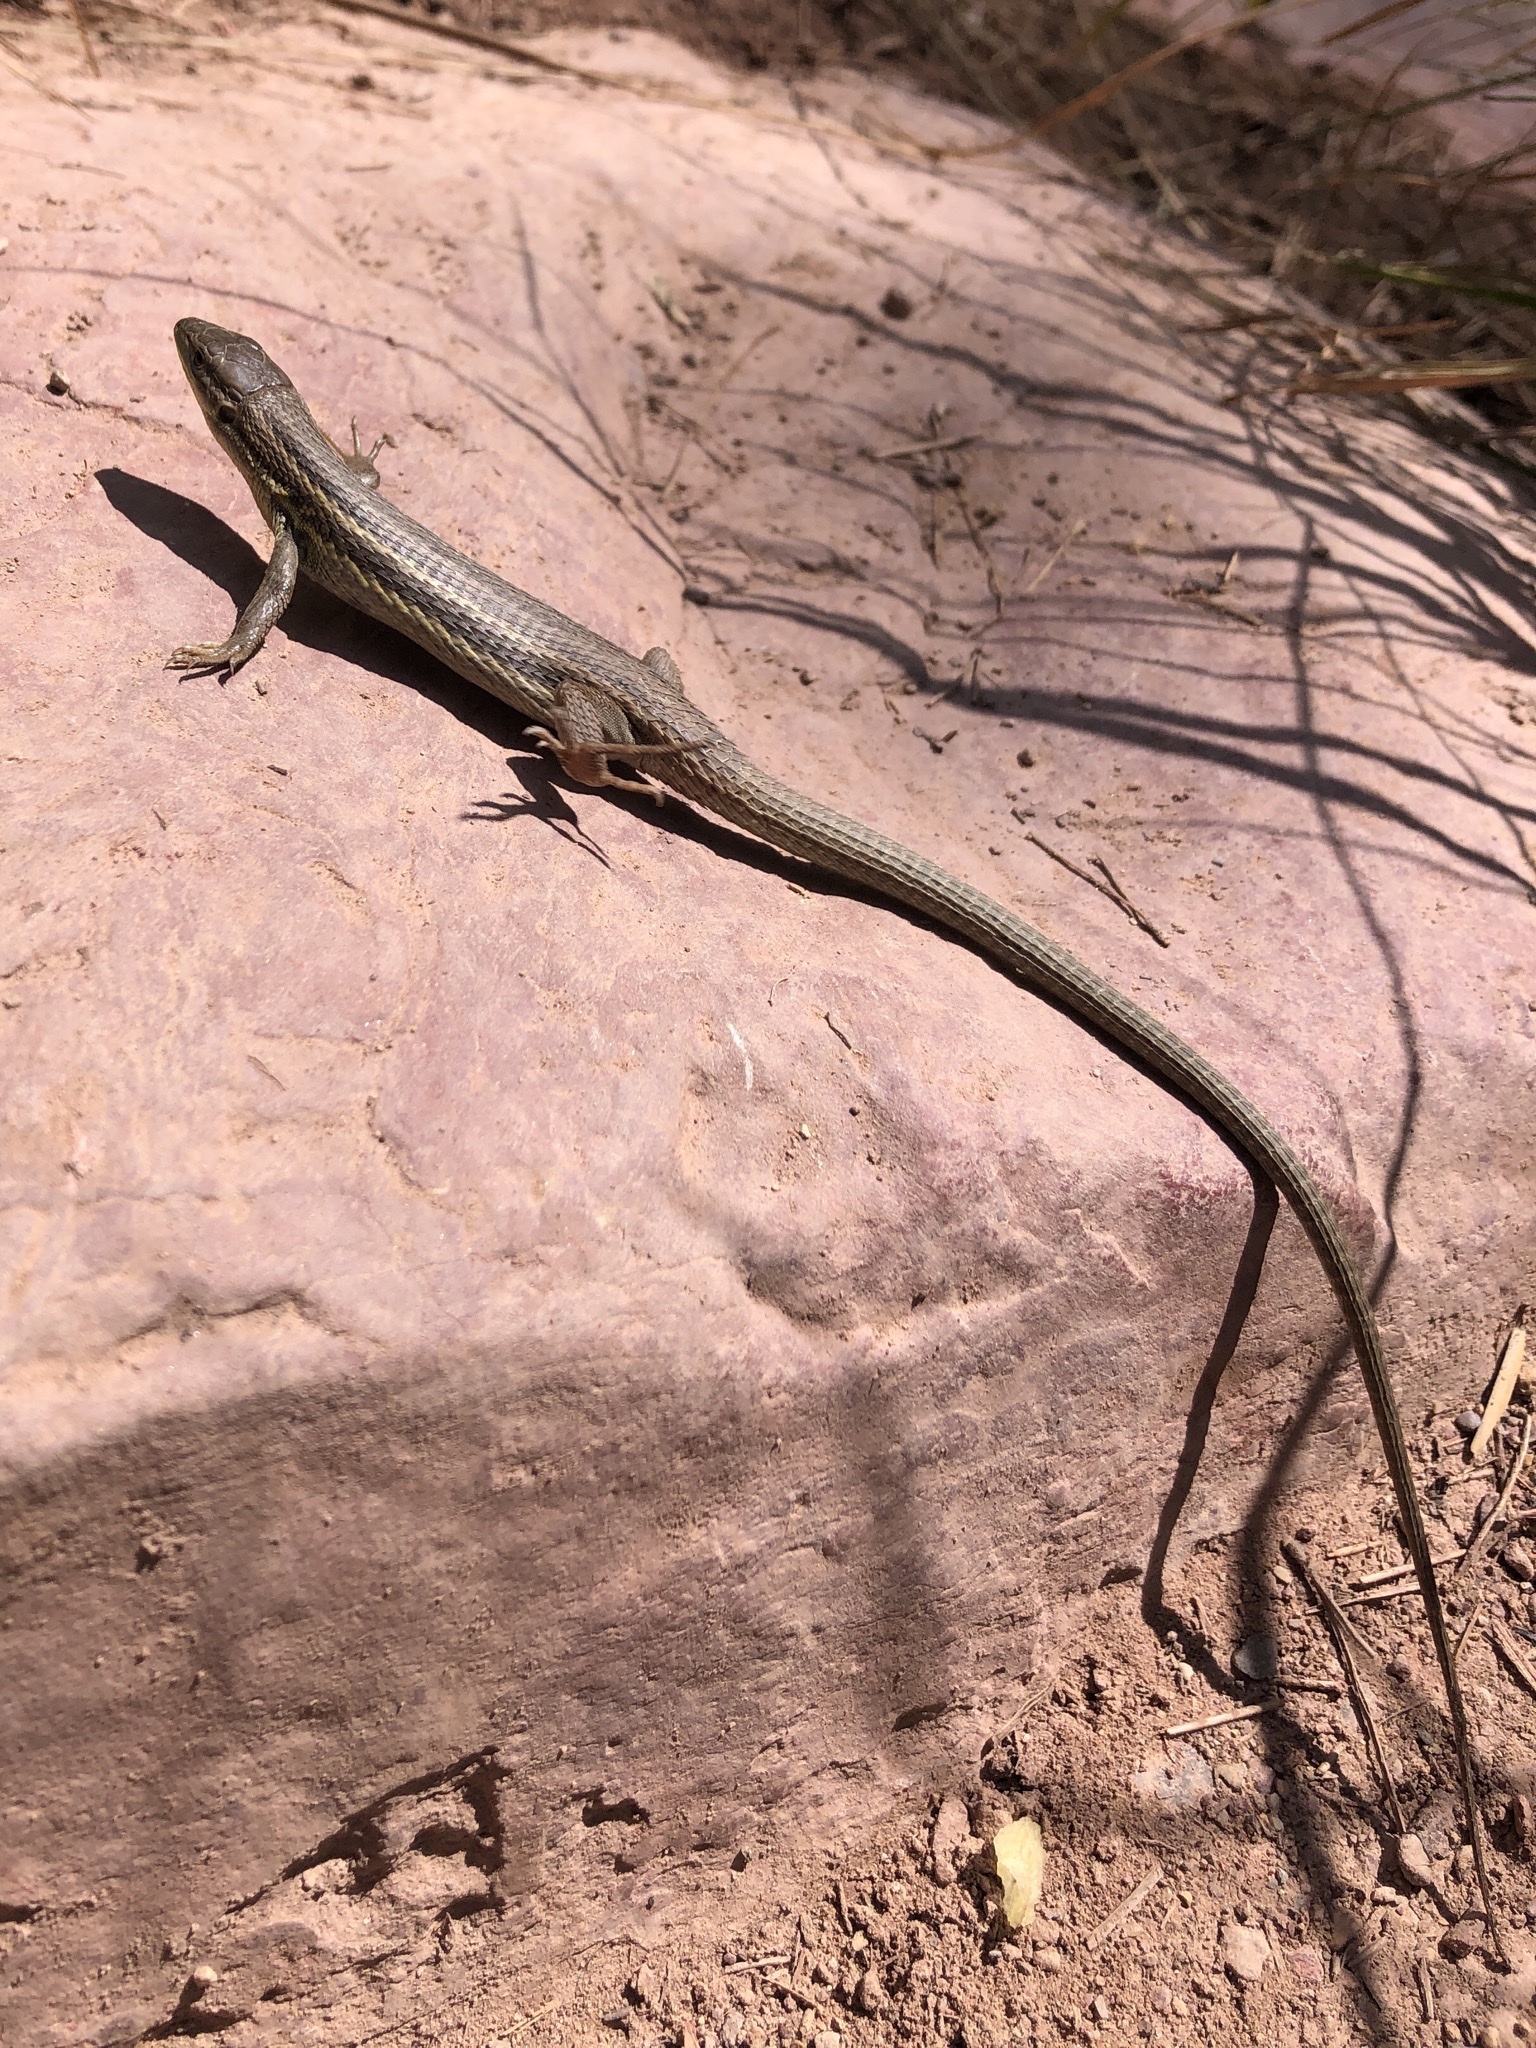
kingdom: Animalia
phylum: Chordata
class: Squamata
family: Lacertidae
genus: Psammodromus
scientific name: Psammodromus algirus
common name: Algerian psammodromus
